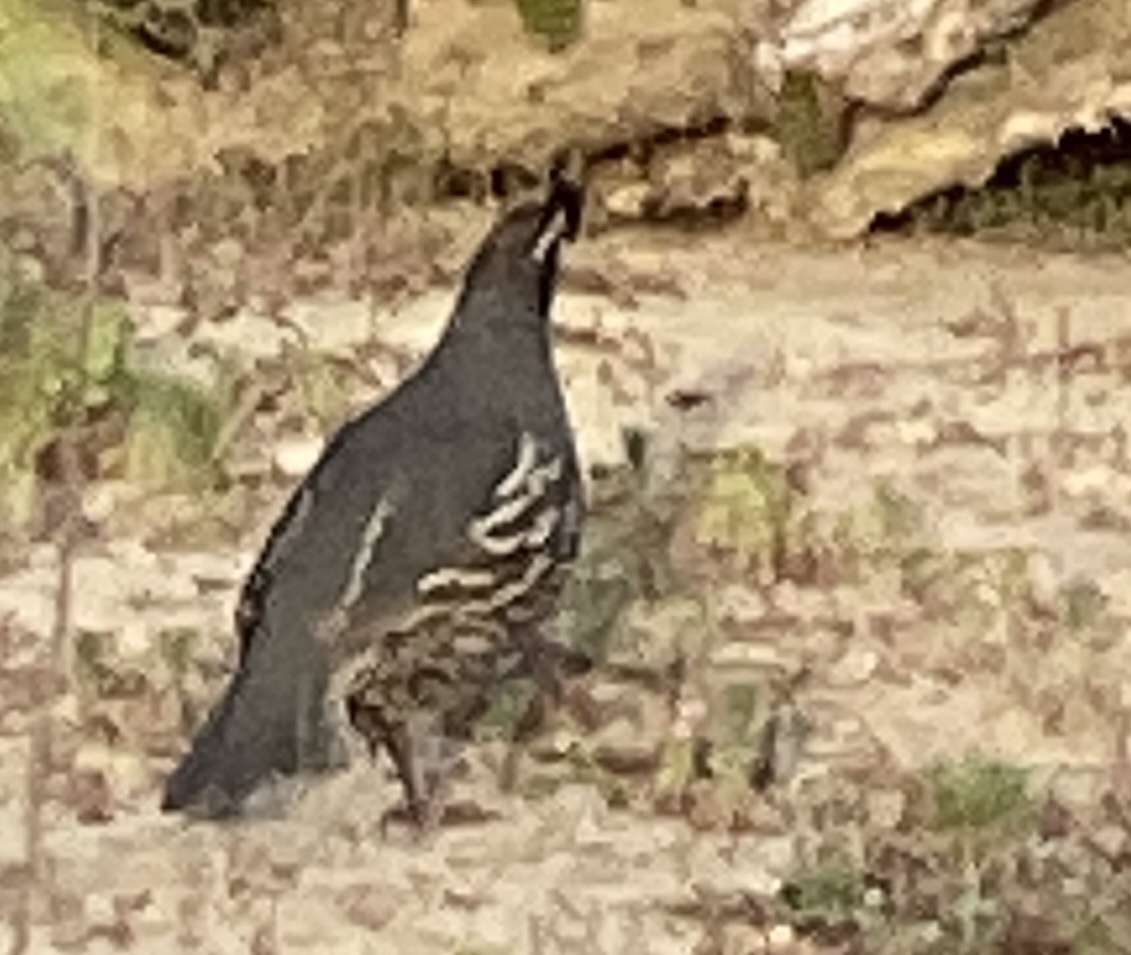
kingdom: Animalia
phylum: Chordata
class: Aves
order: Galliformes
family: Odontophoridae
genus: Callipepla
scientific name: Callipepla californica
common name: California quail
